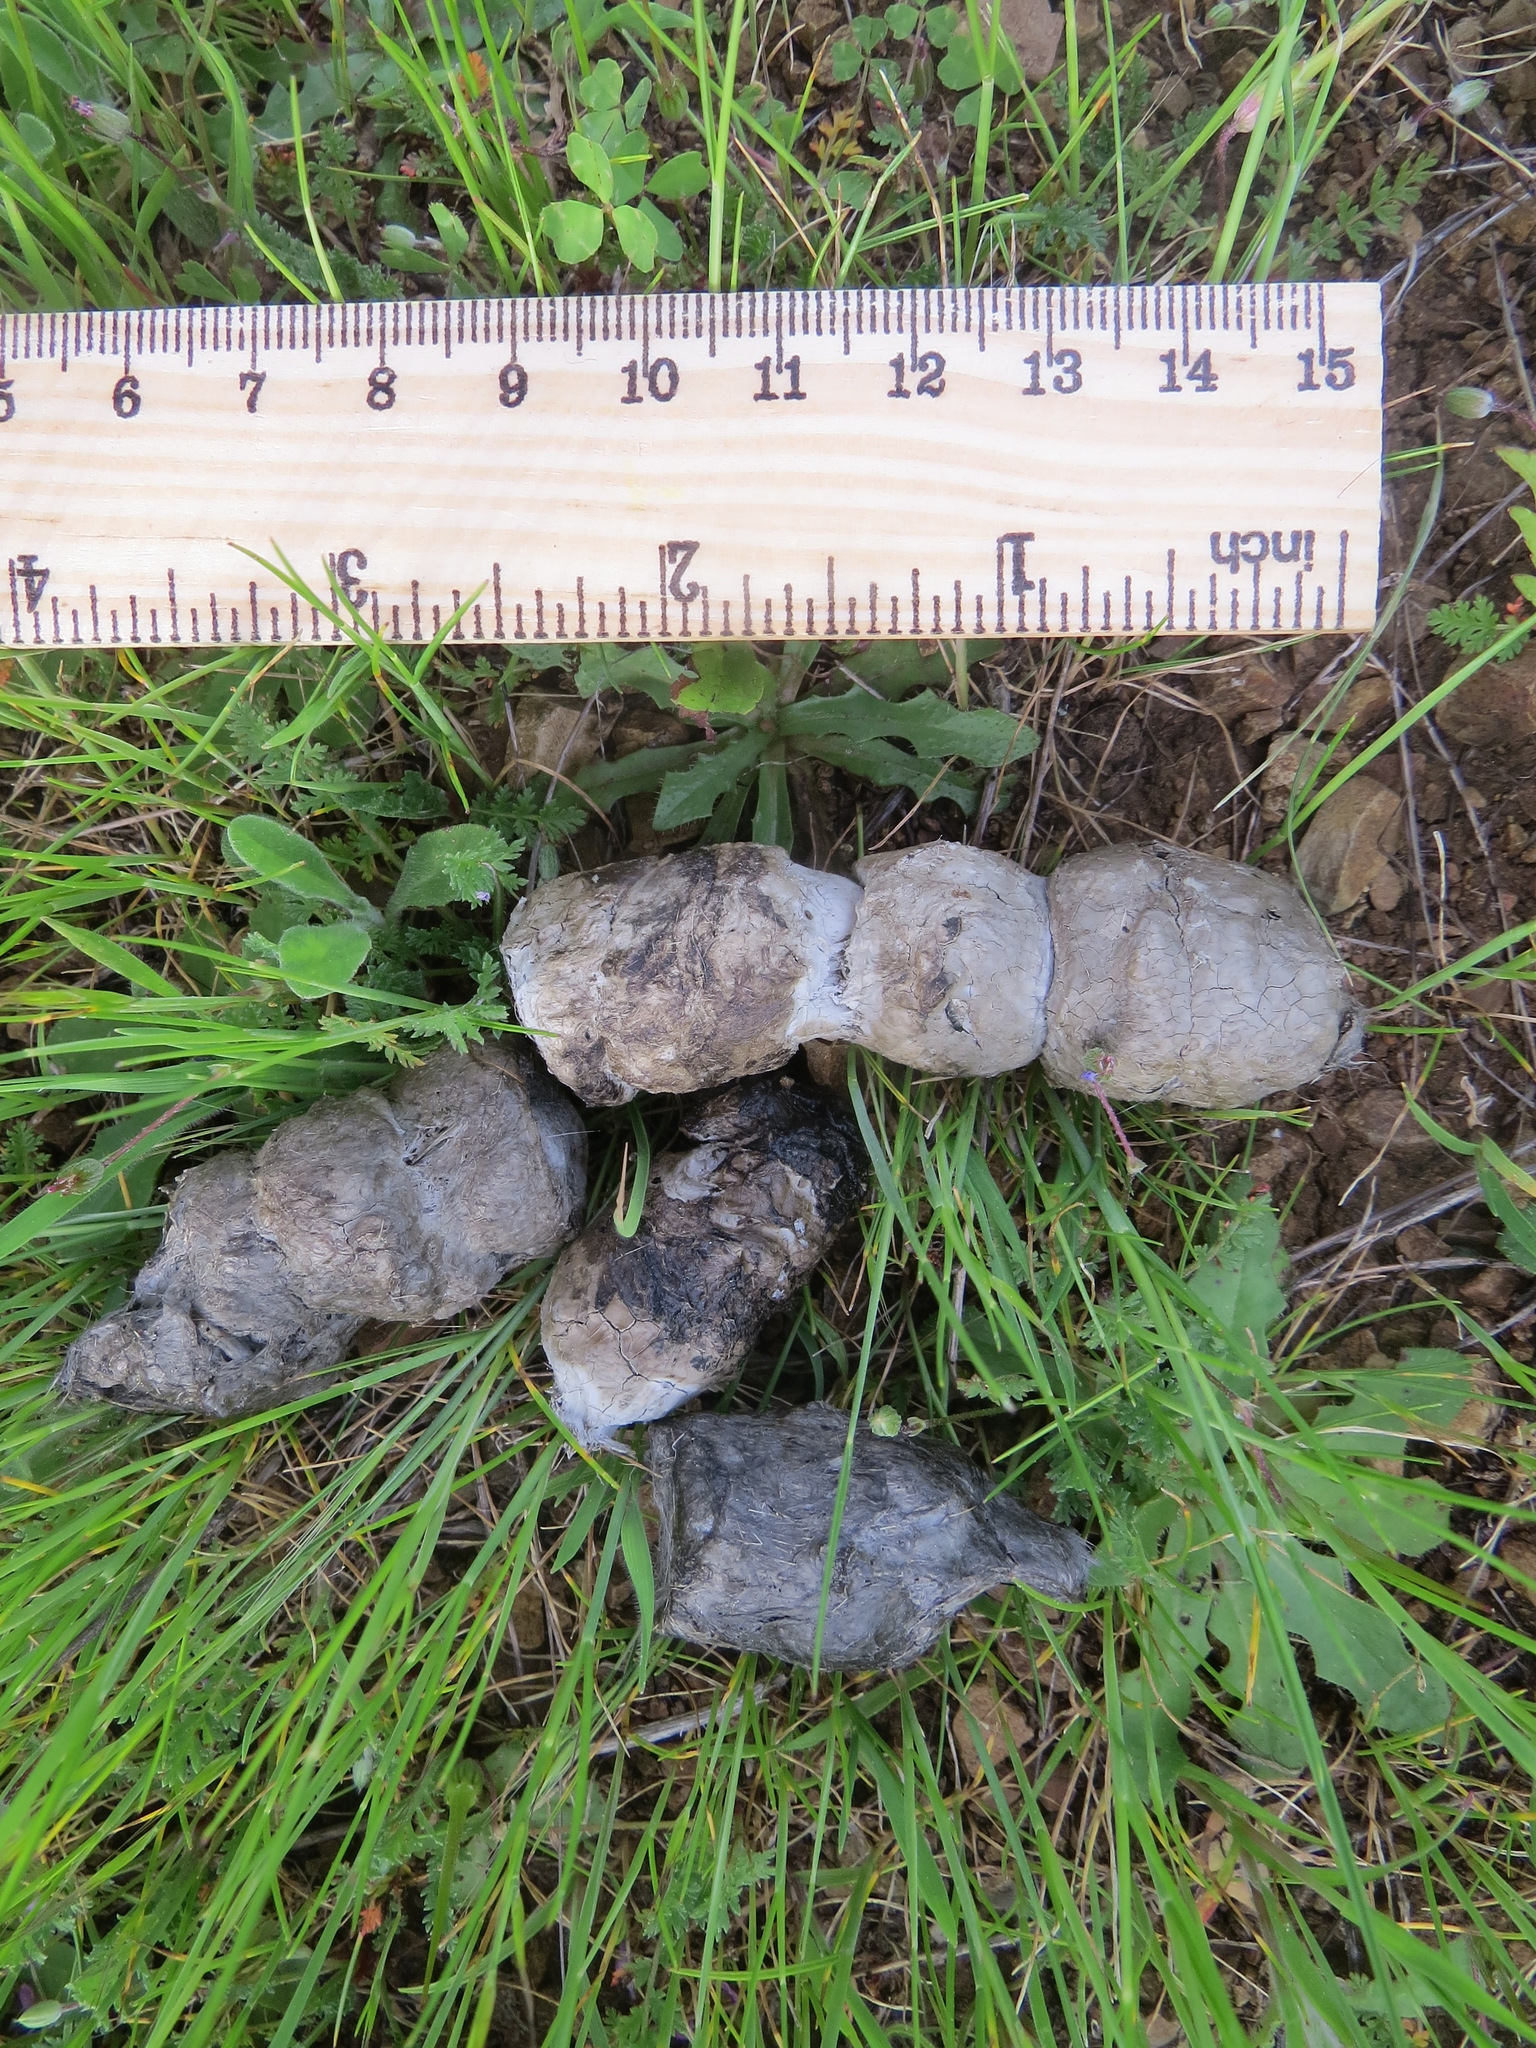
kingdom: Animalia
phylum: Chordata
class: Mammalia
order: Carnivora
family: Felidae
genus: Lynx
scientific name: Lynx rufus
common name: Bobcat
